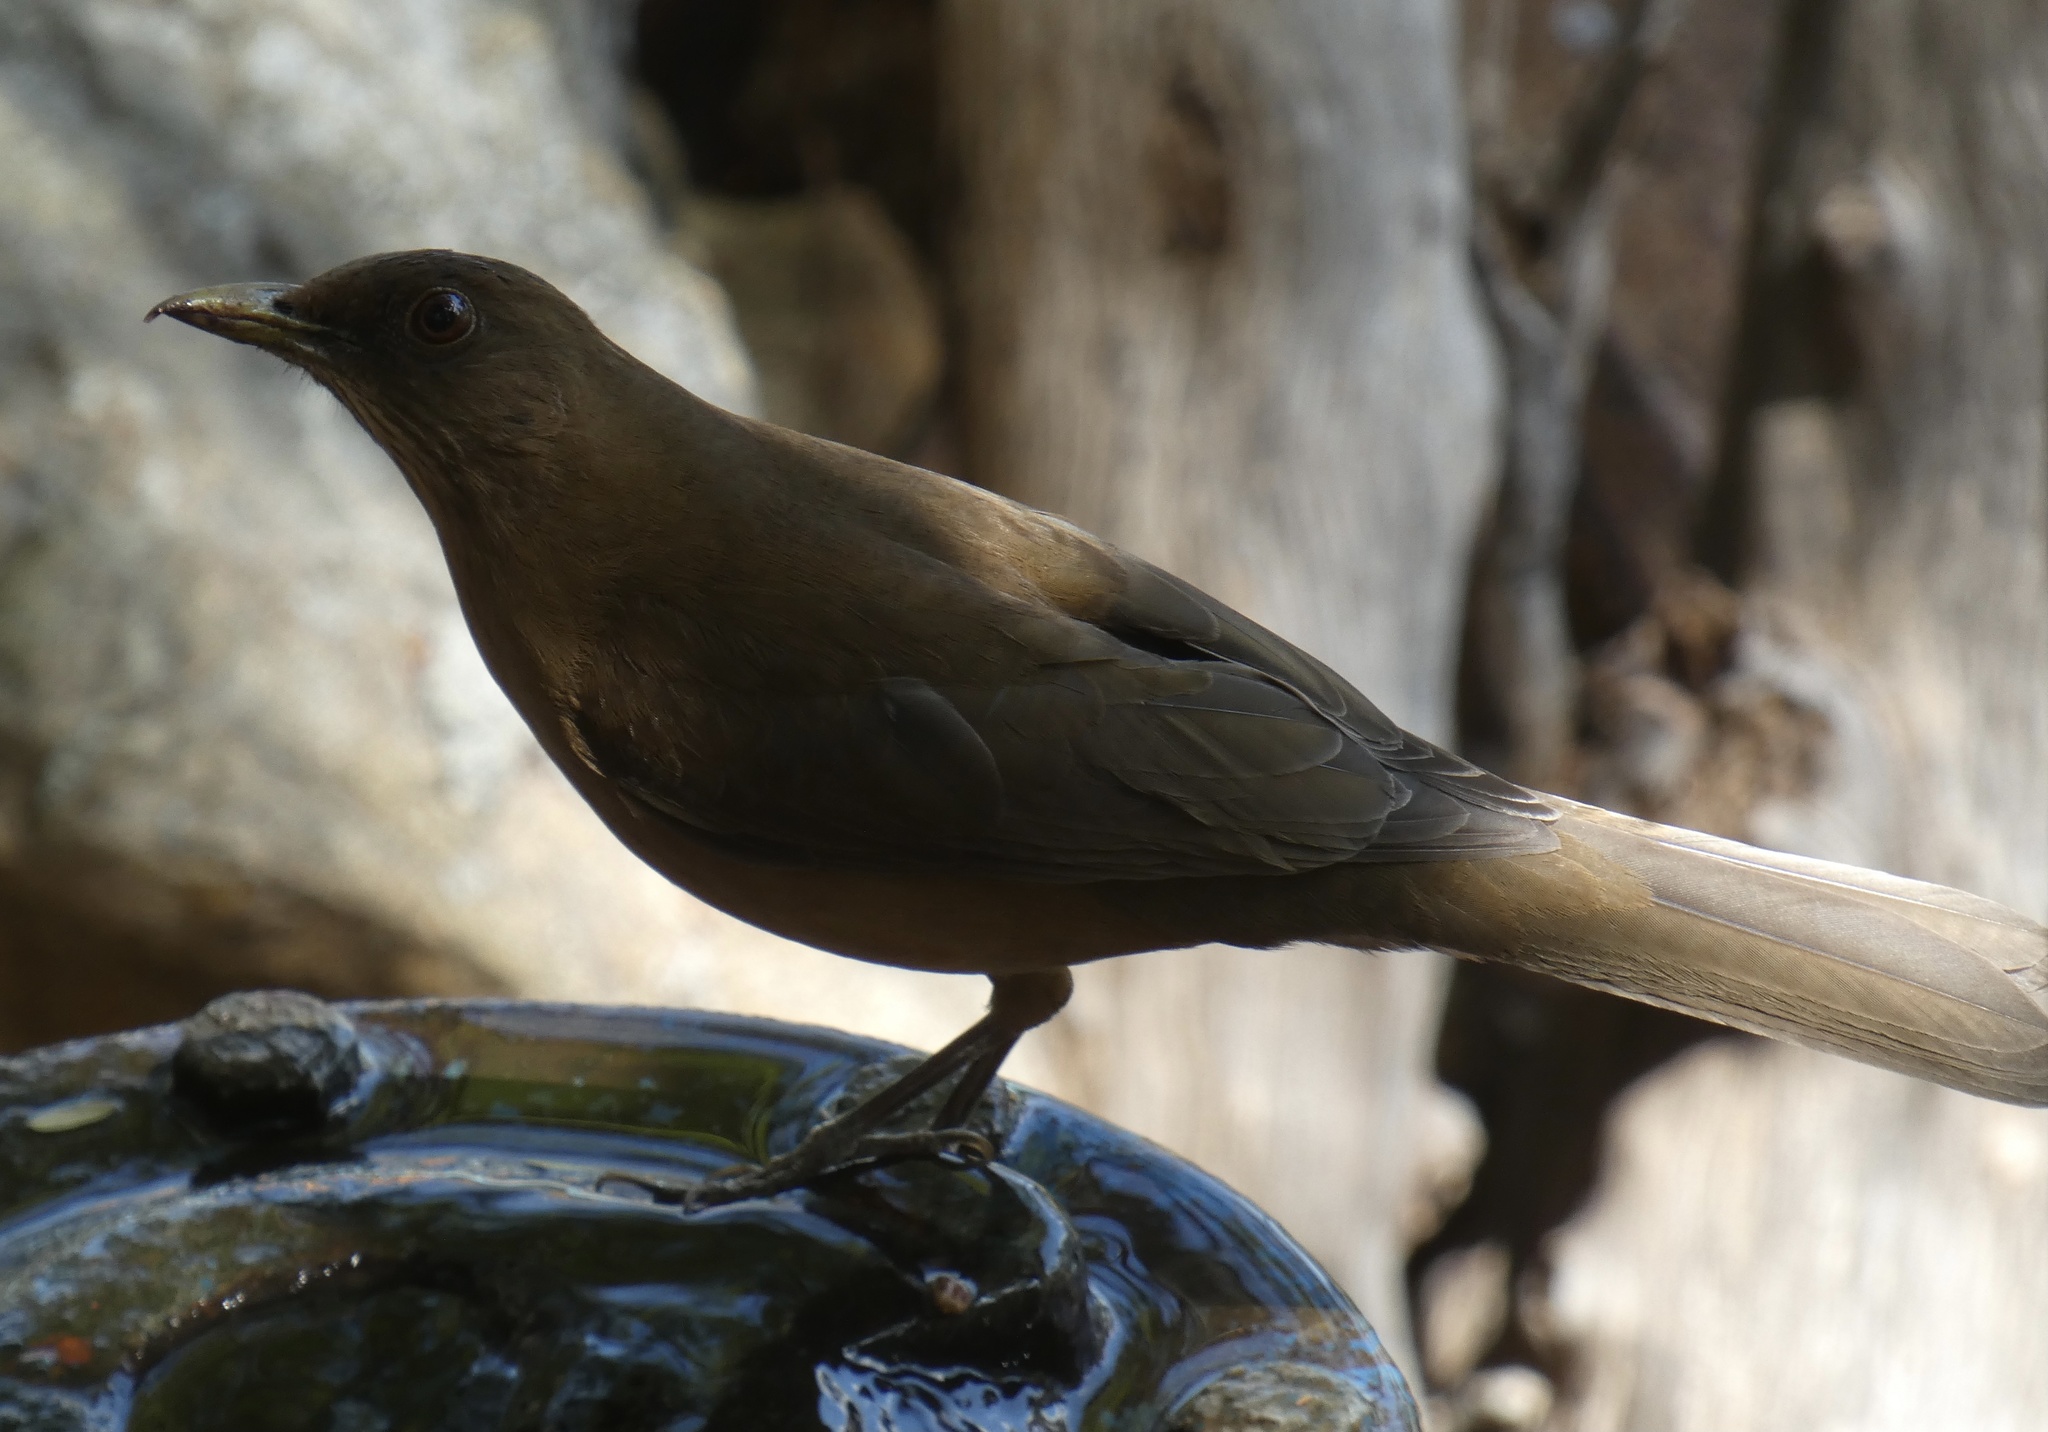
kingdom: Animalia
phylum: Chordata
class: Aves
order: Passeriformes
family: Turdidae
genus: Turdus
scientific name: Turdus grayi
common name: Clay-colored thrush
